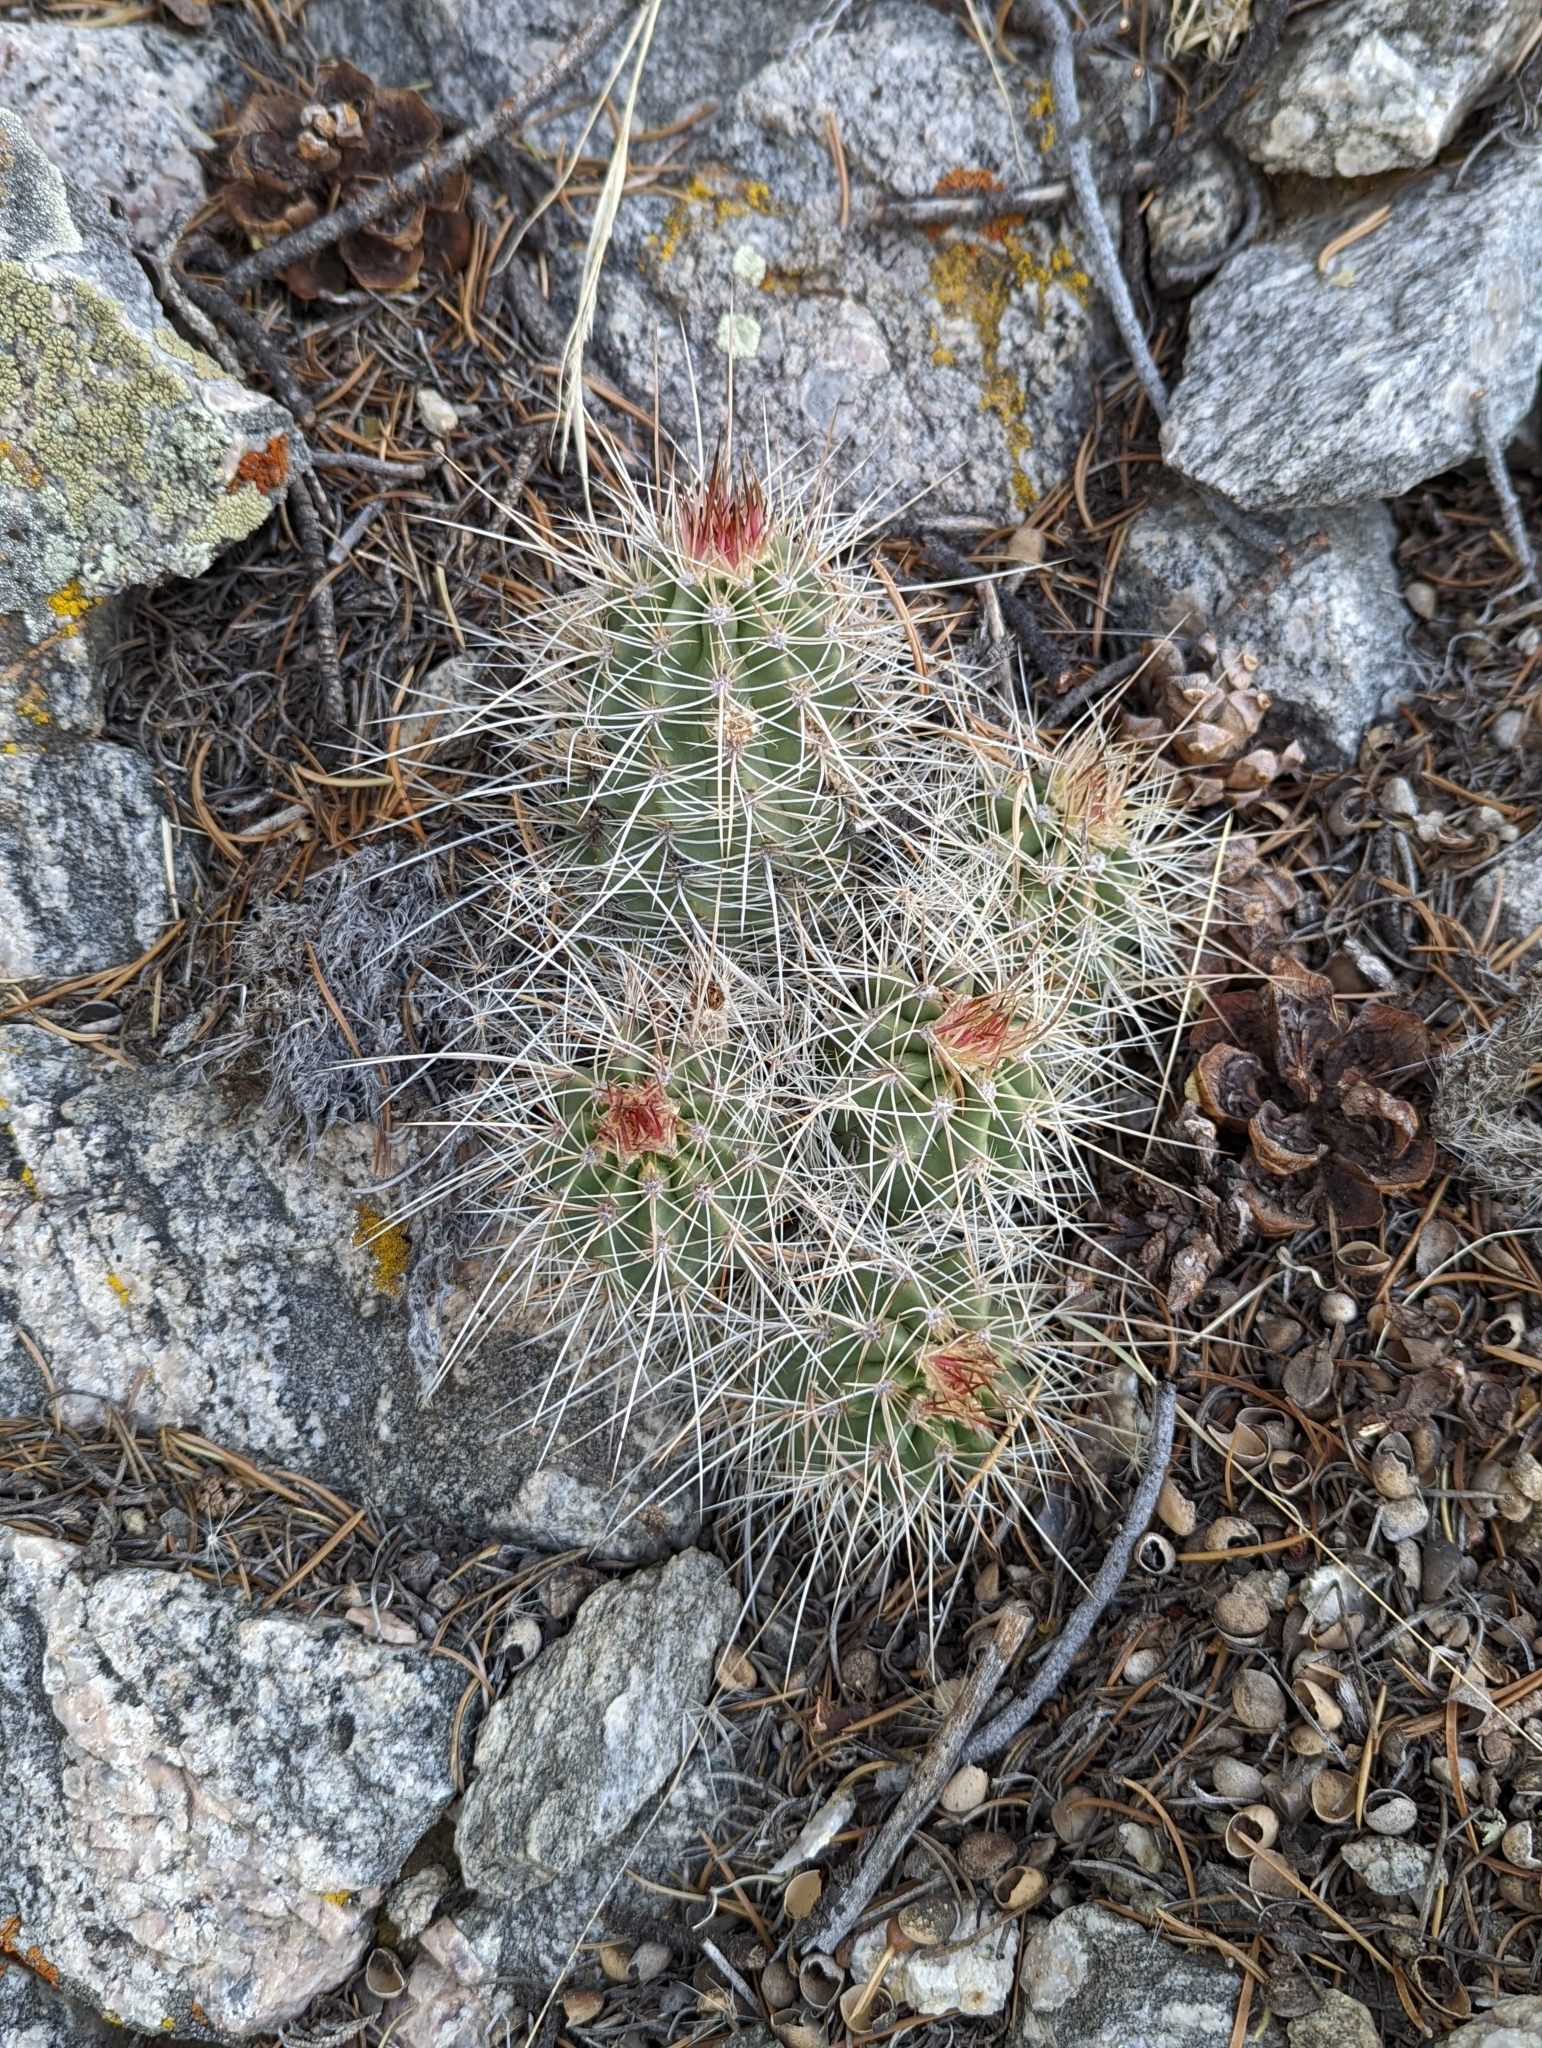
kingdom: Plantae
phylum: Tracheophyta
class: Magnoliopsida
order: Caryophyllales
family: Cactaceae
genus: Echinocereus
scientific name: Echinocereus coccineus
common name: Scarlet hedgehog cactus
